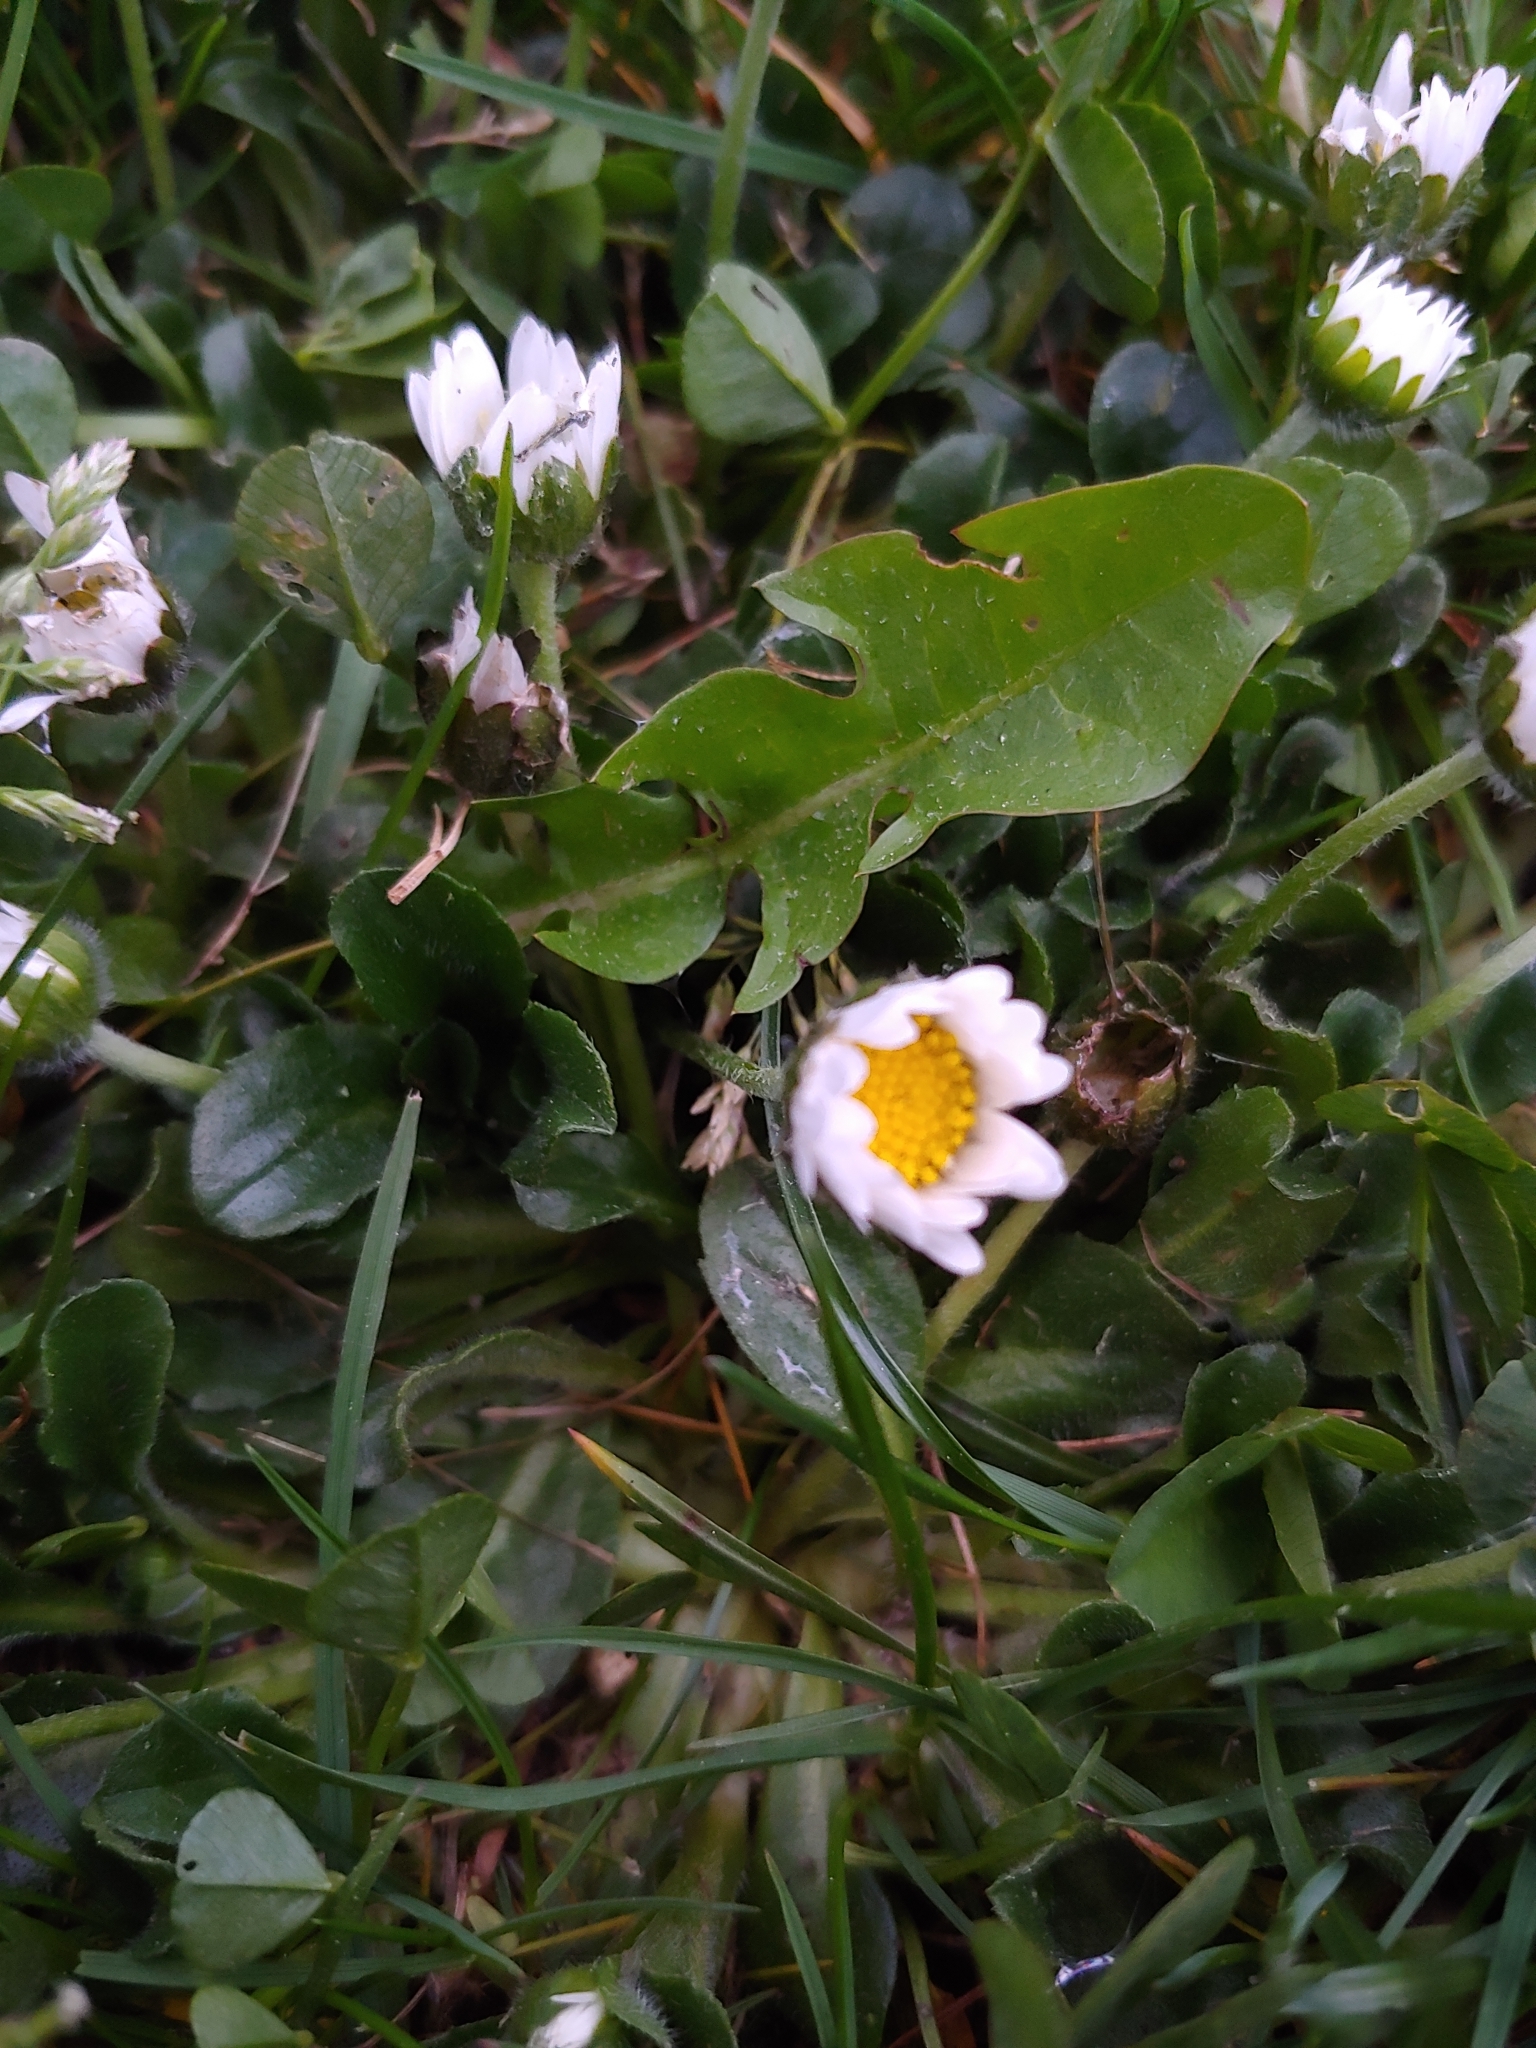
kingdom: Plantae
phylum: Tracheophyta
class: Magnoliopsida
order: Asterales
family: Asteraceae
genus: Bellis
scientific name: Bellis perennis
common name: Lawndaisy
